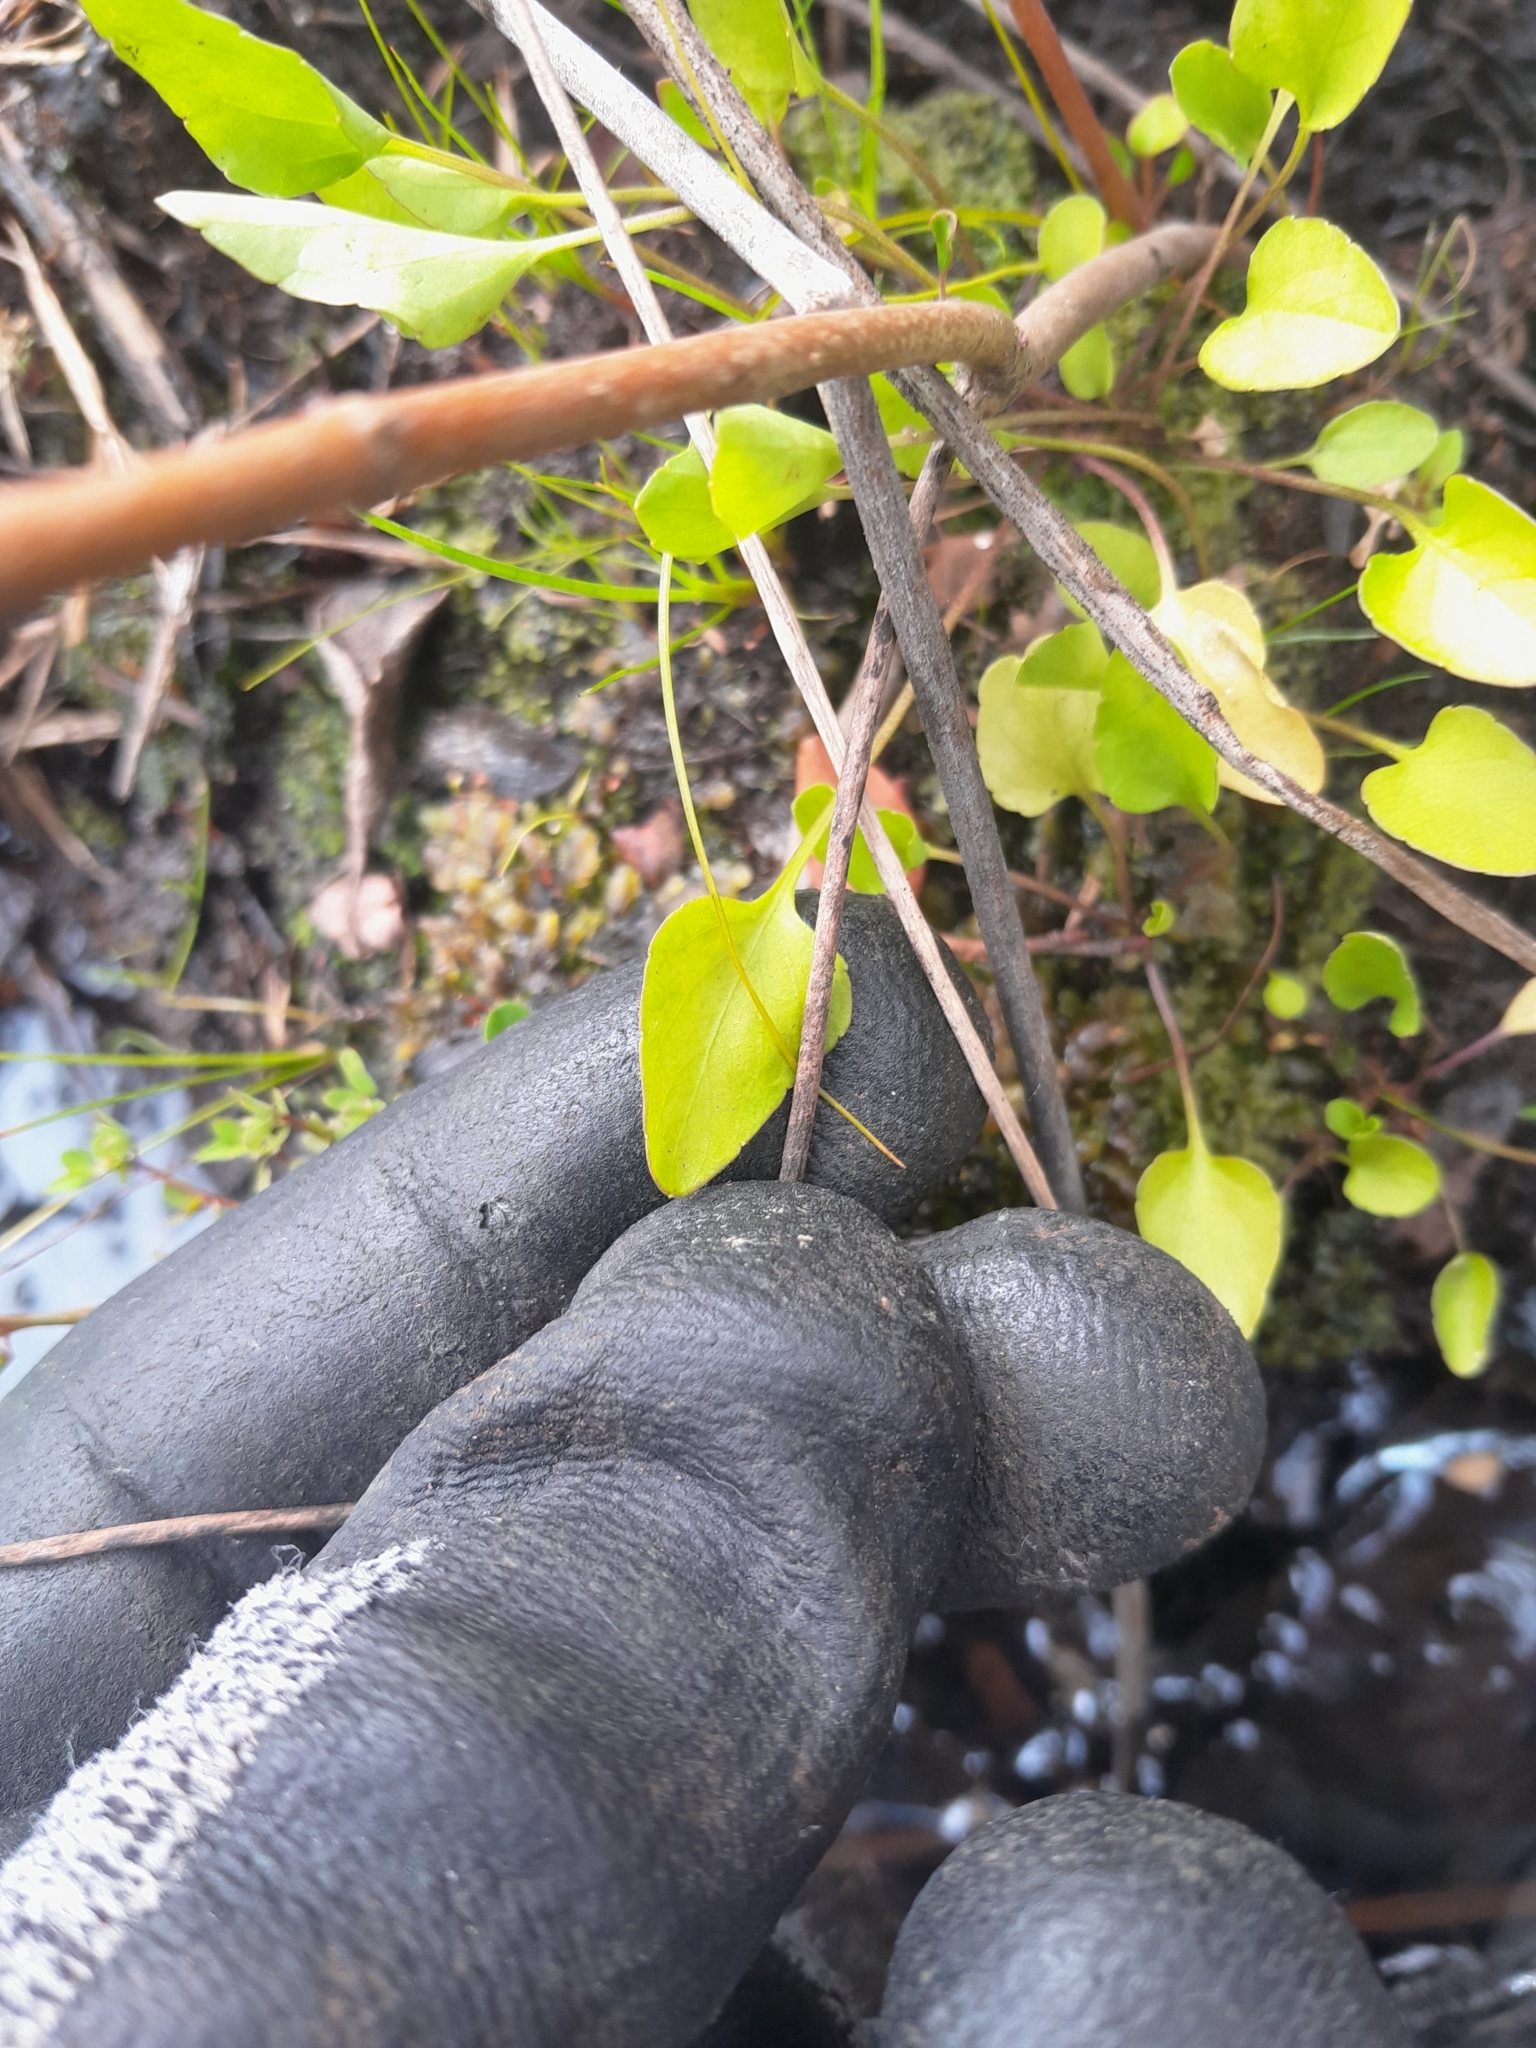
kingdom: Plantae
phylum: Tracheophyta
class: Magnoliopsida
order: Malpighiales
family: Violaceae
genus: Viola
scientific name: Viola cunninghamii
